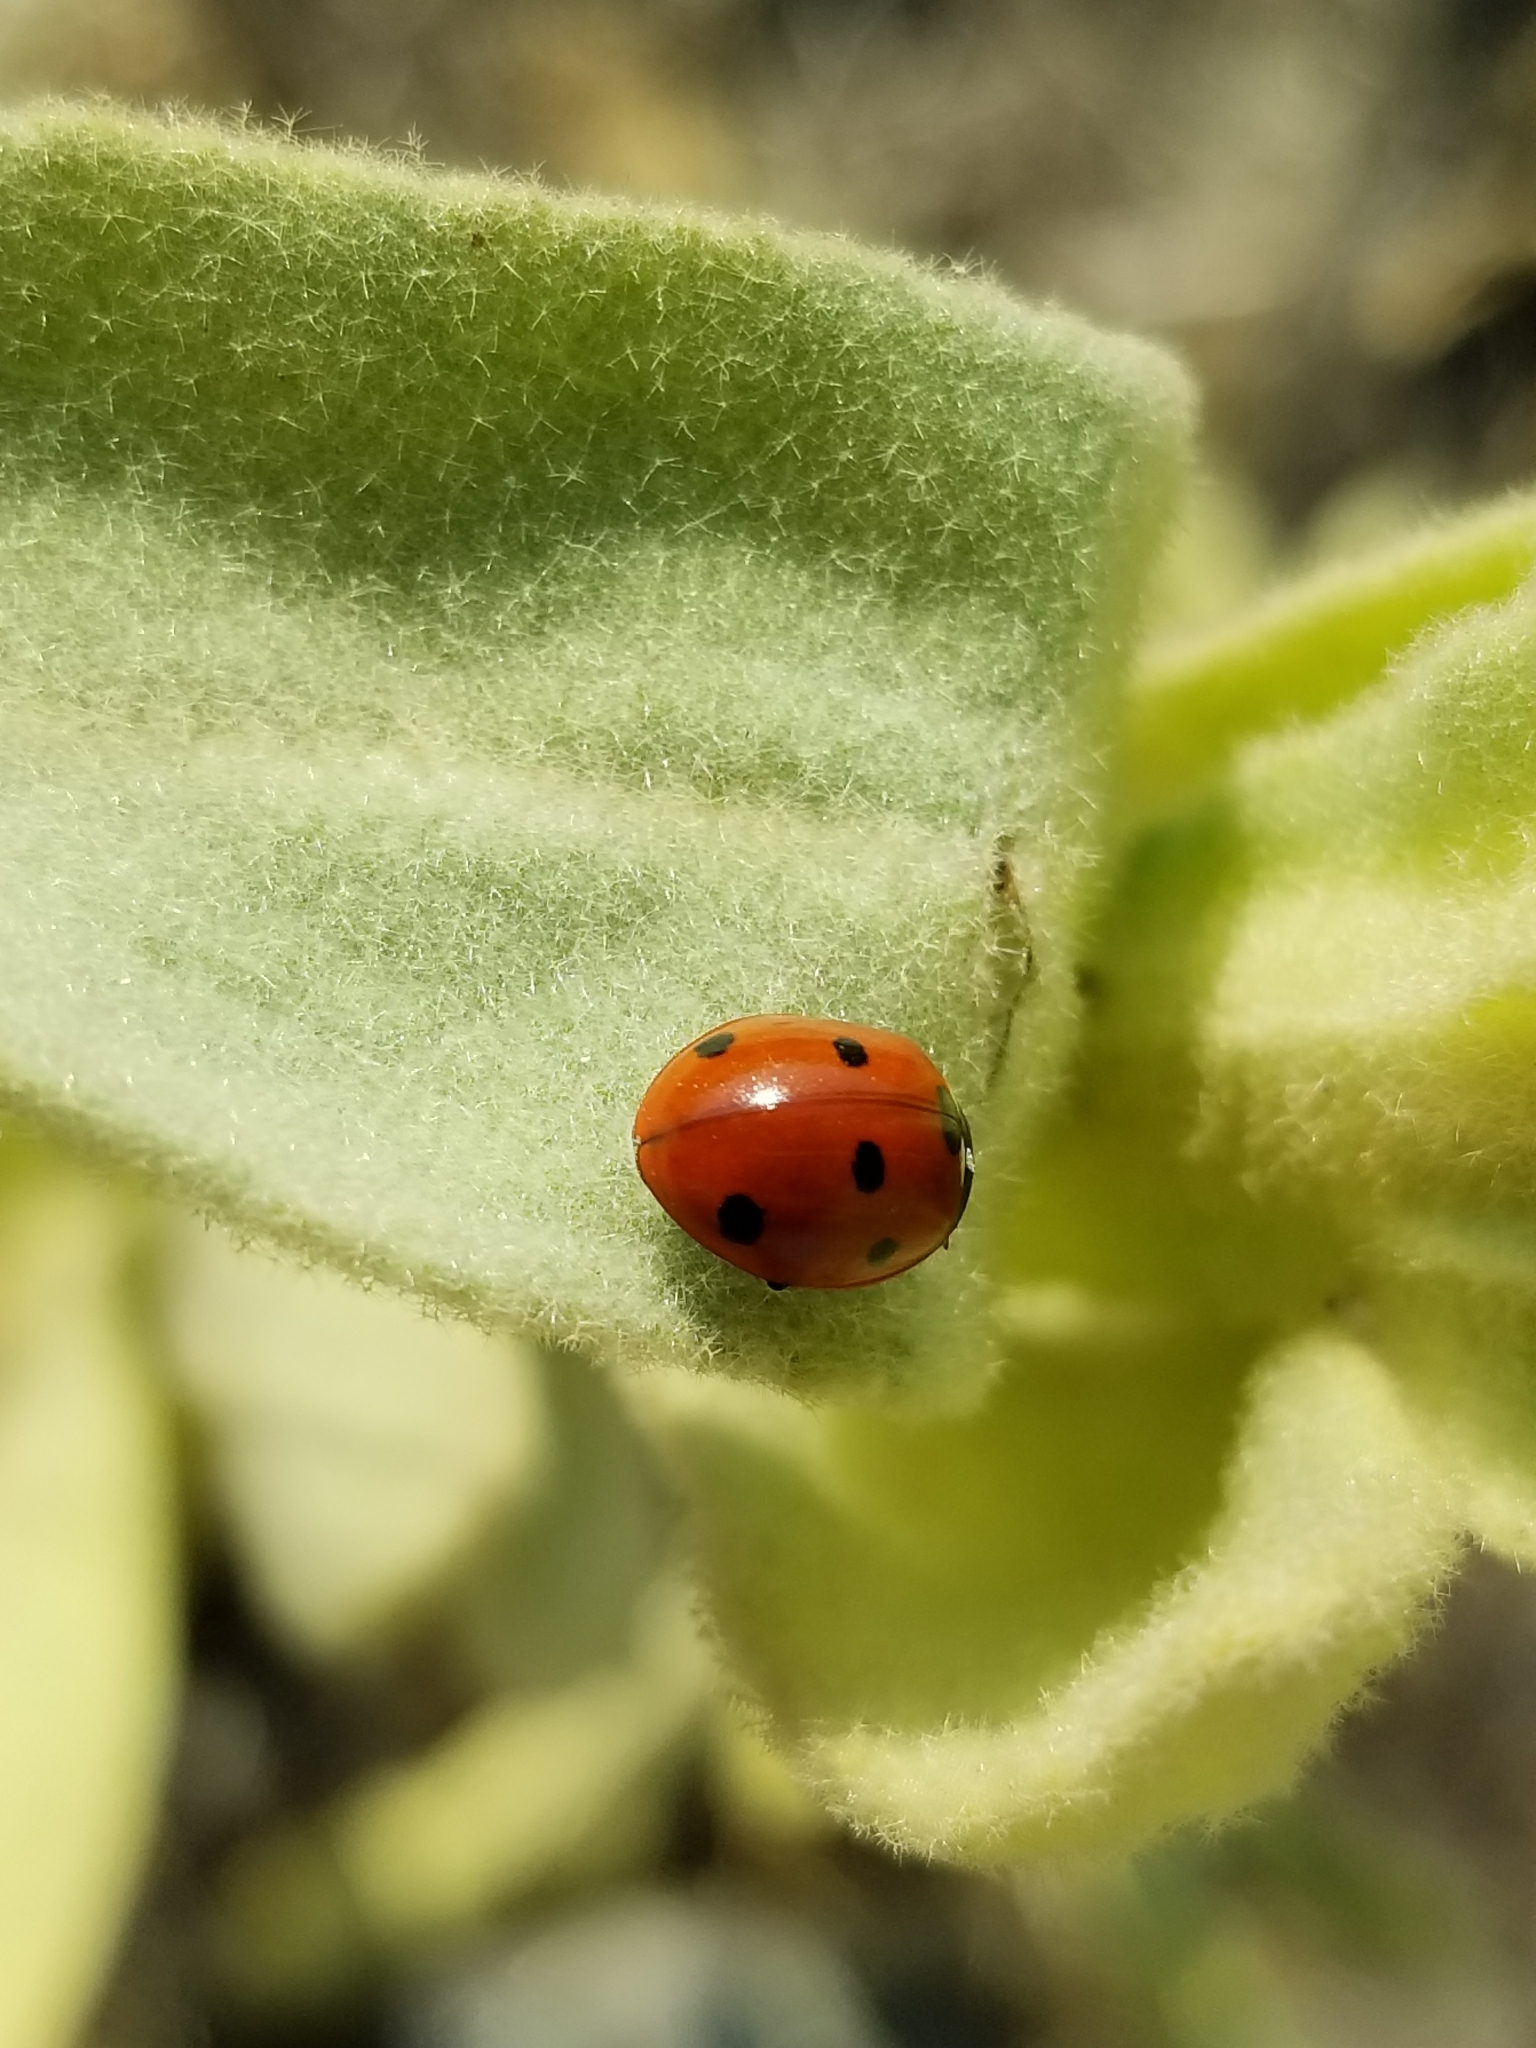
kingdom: Animalia
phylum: Arthropoda
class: Insecta
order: Coleoptera
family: Coccinellidae
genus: Coccinella
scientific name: Coccinella septempunctata
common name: Sevenspotted lady beetle
